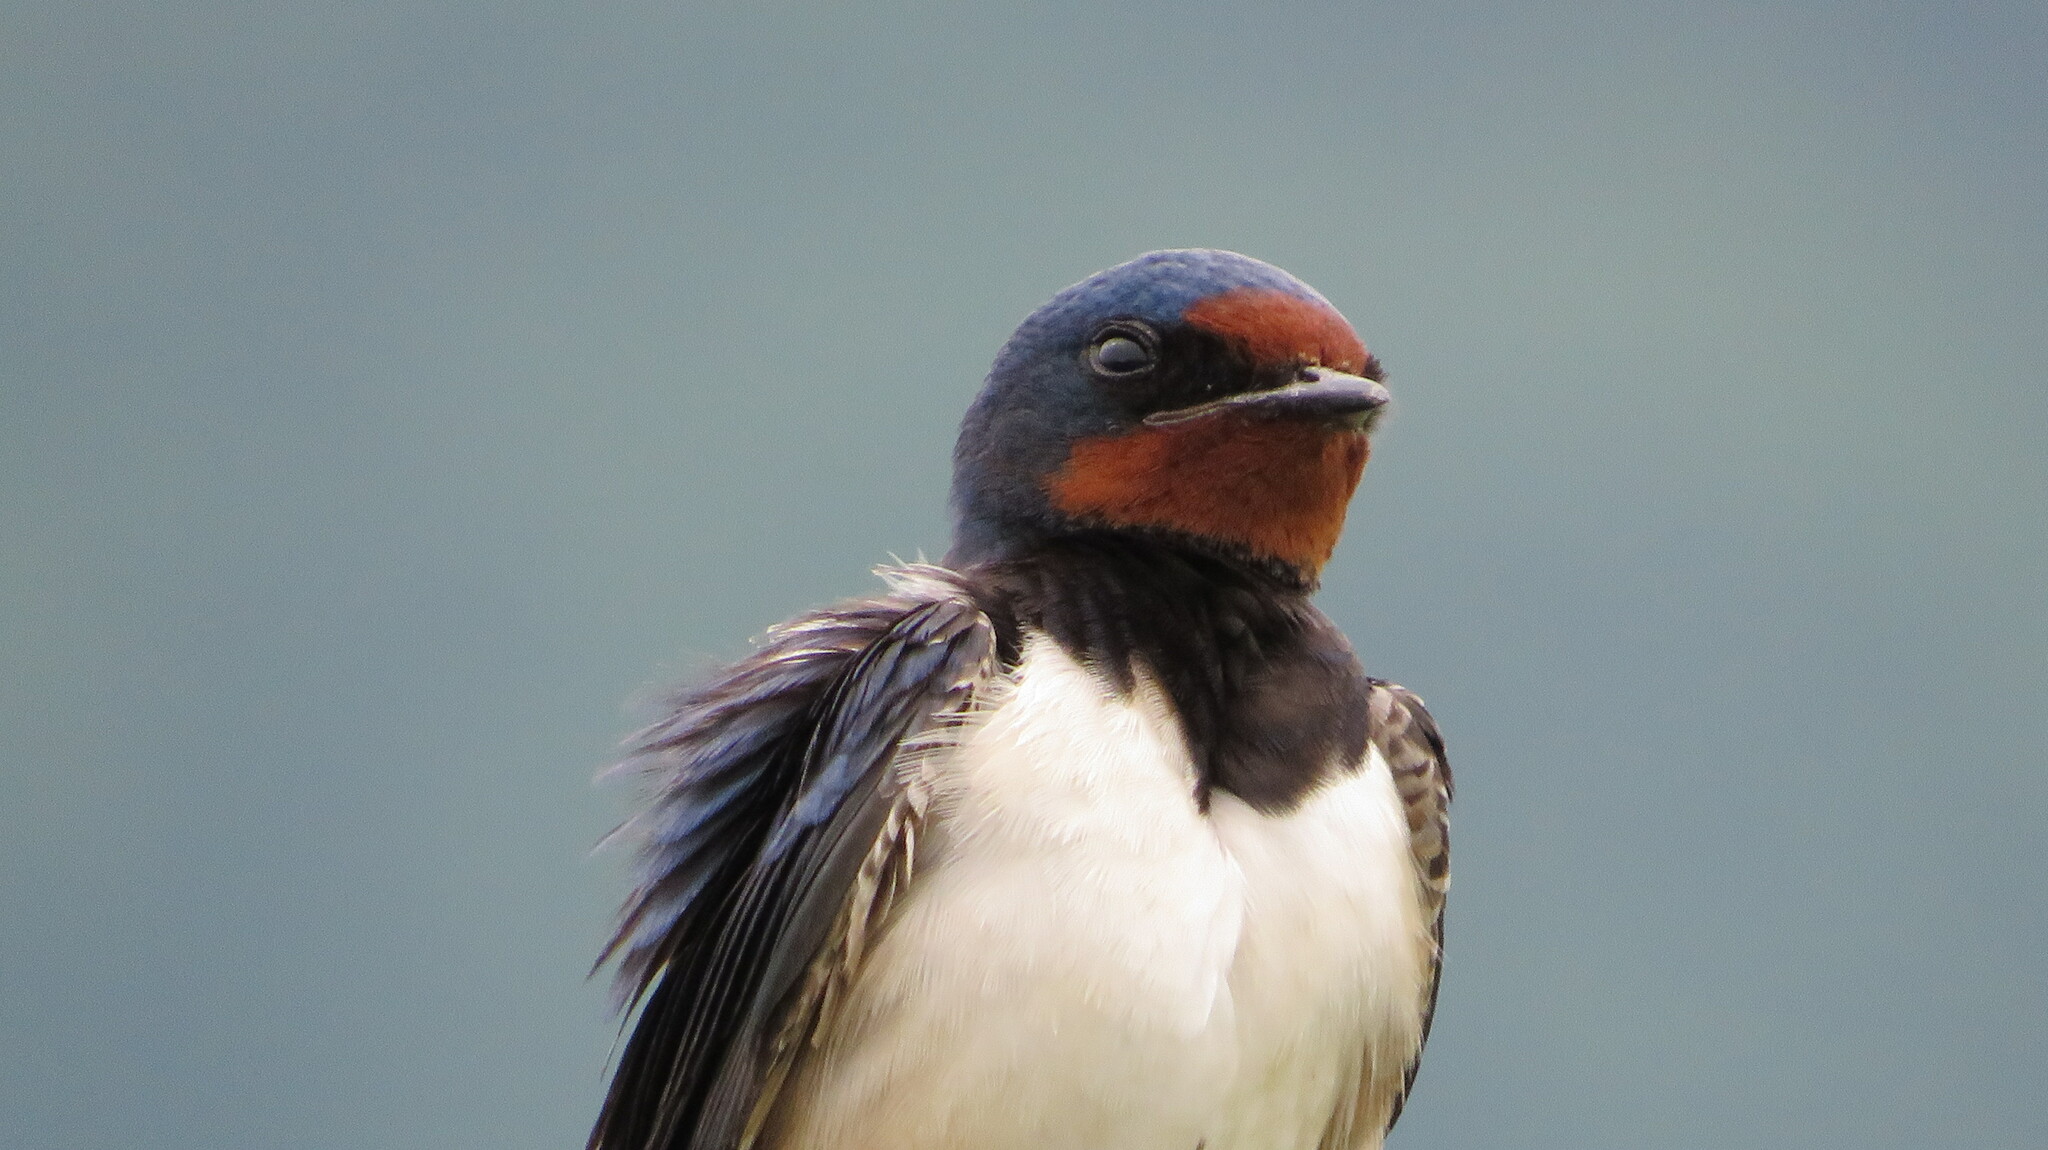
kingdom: Animalia
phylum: Chordata
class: Aves
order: Passeriformes
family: Hirundinidae
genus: Hirundo
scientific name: Hirundo rustica
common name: Barn swallow
